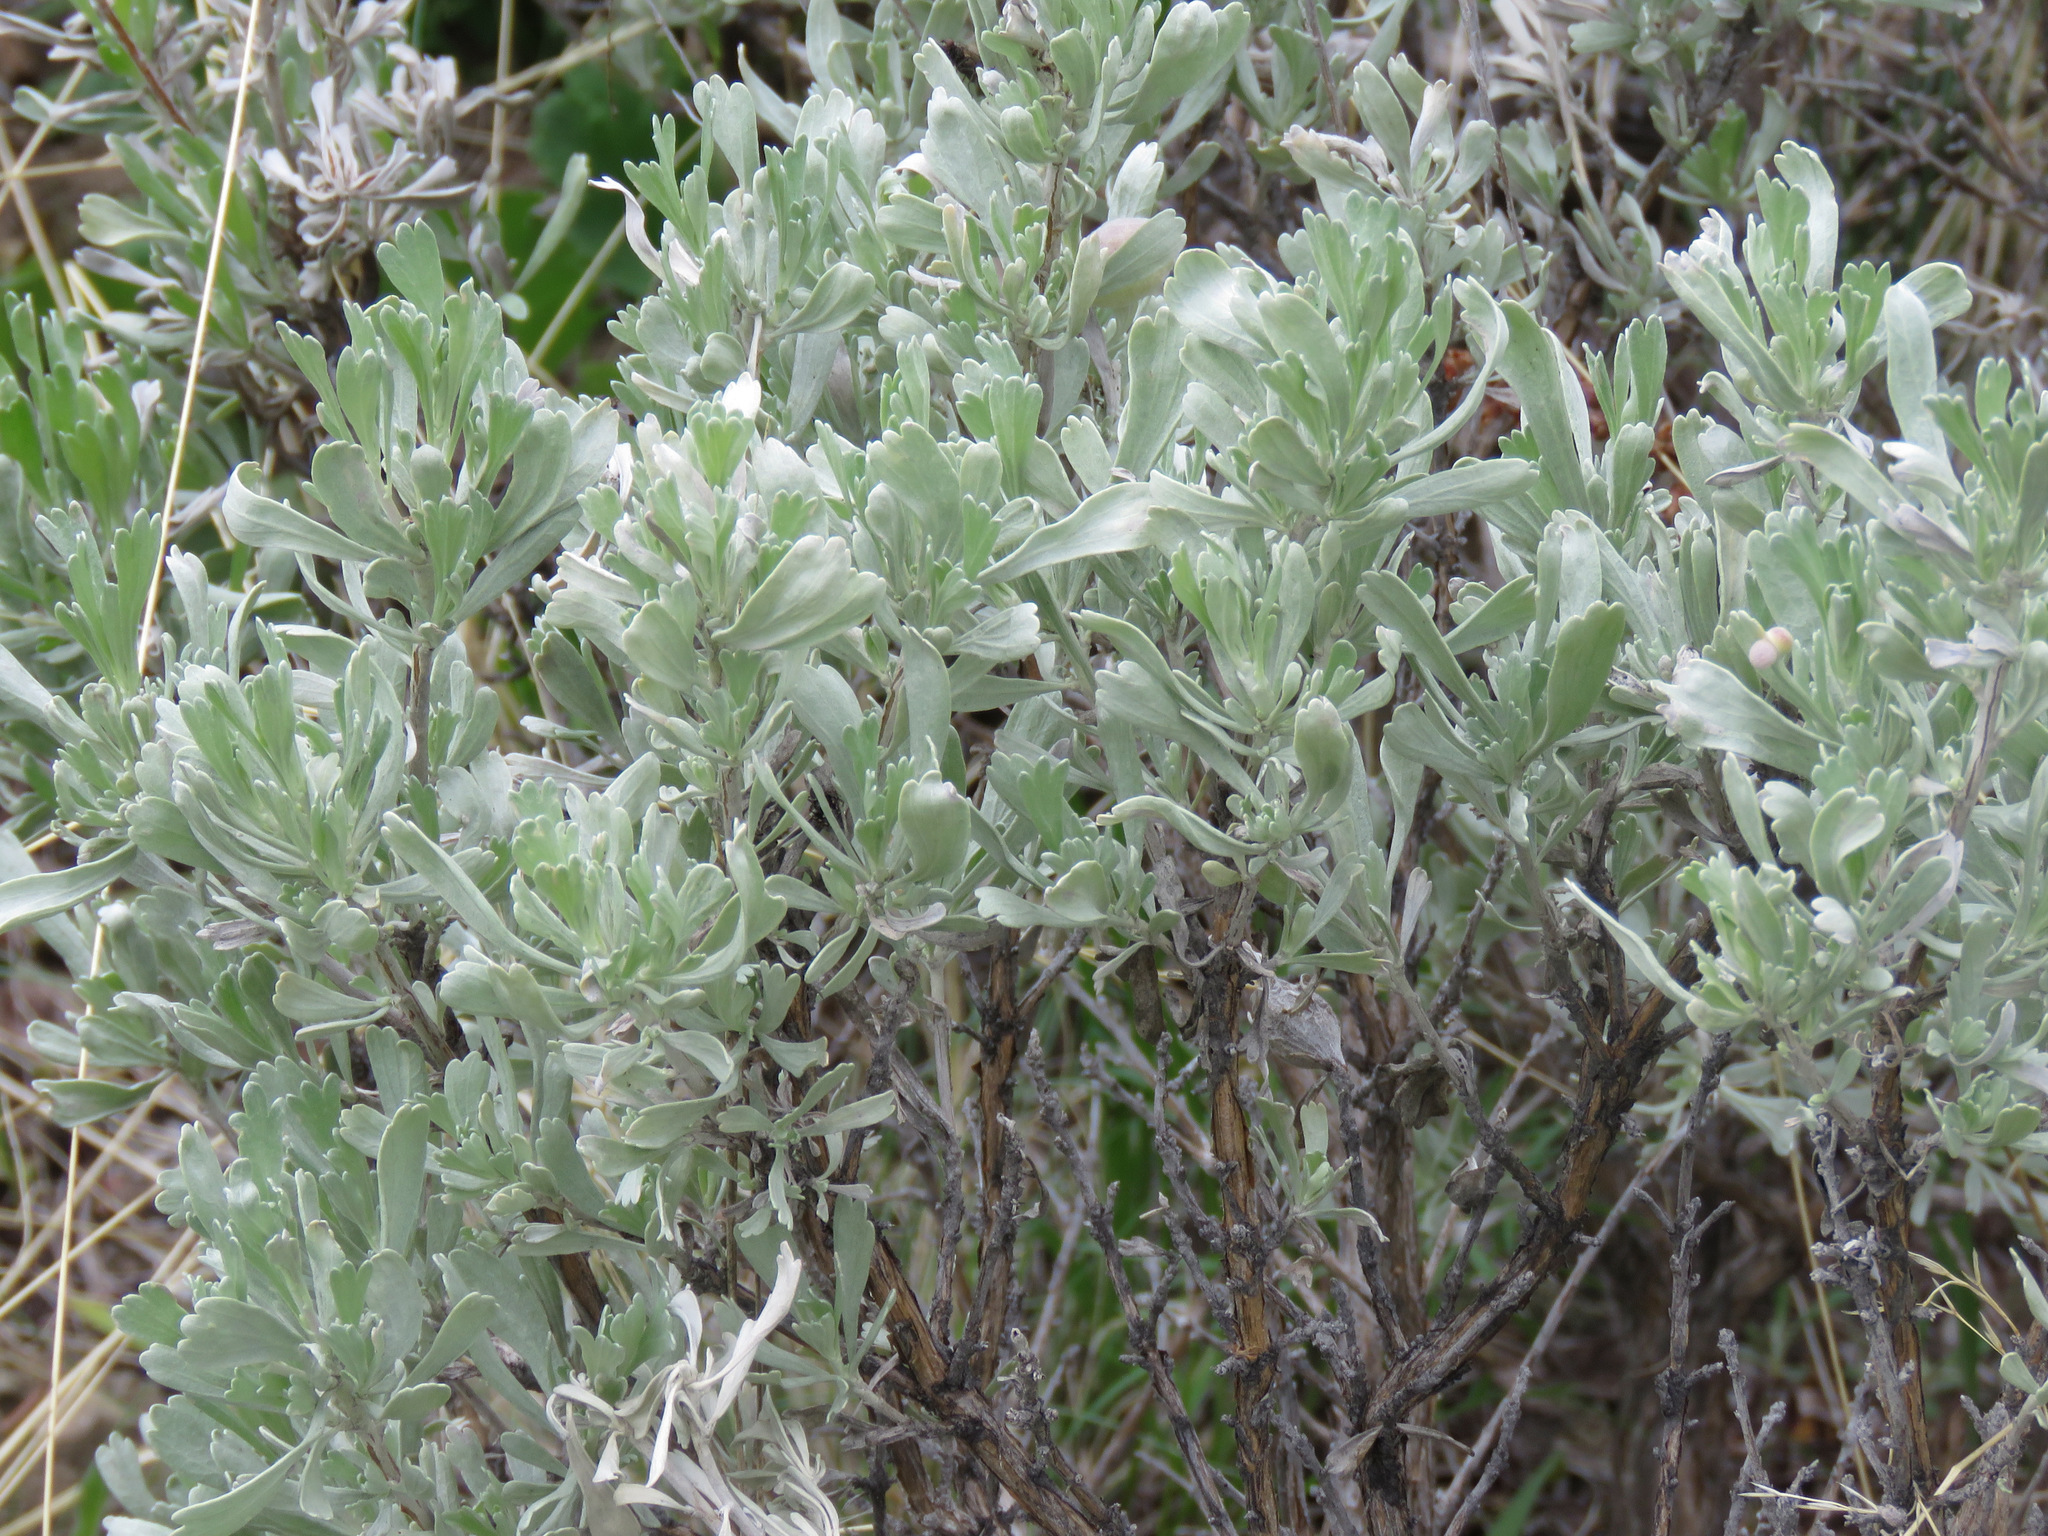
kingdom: Plantae
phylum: Tracheophyta
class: Magnoliopsida
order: Asterales
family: Asteraceae
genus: Artemisia
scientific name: Artemisia tridentata
